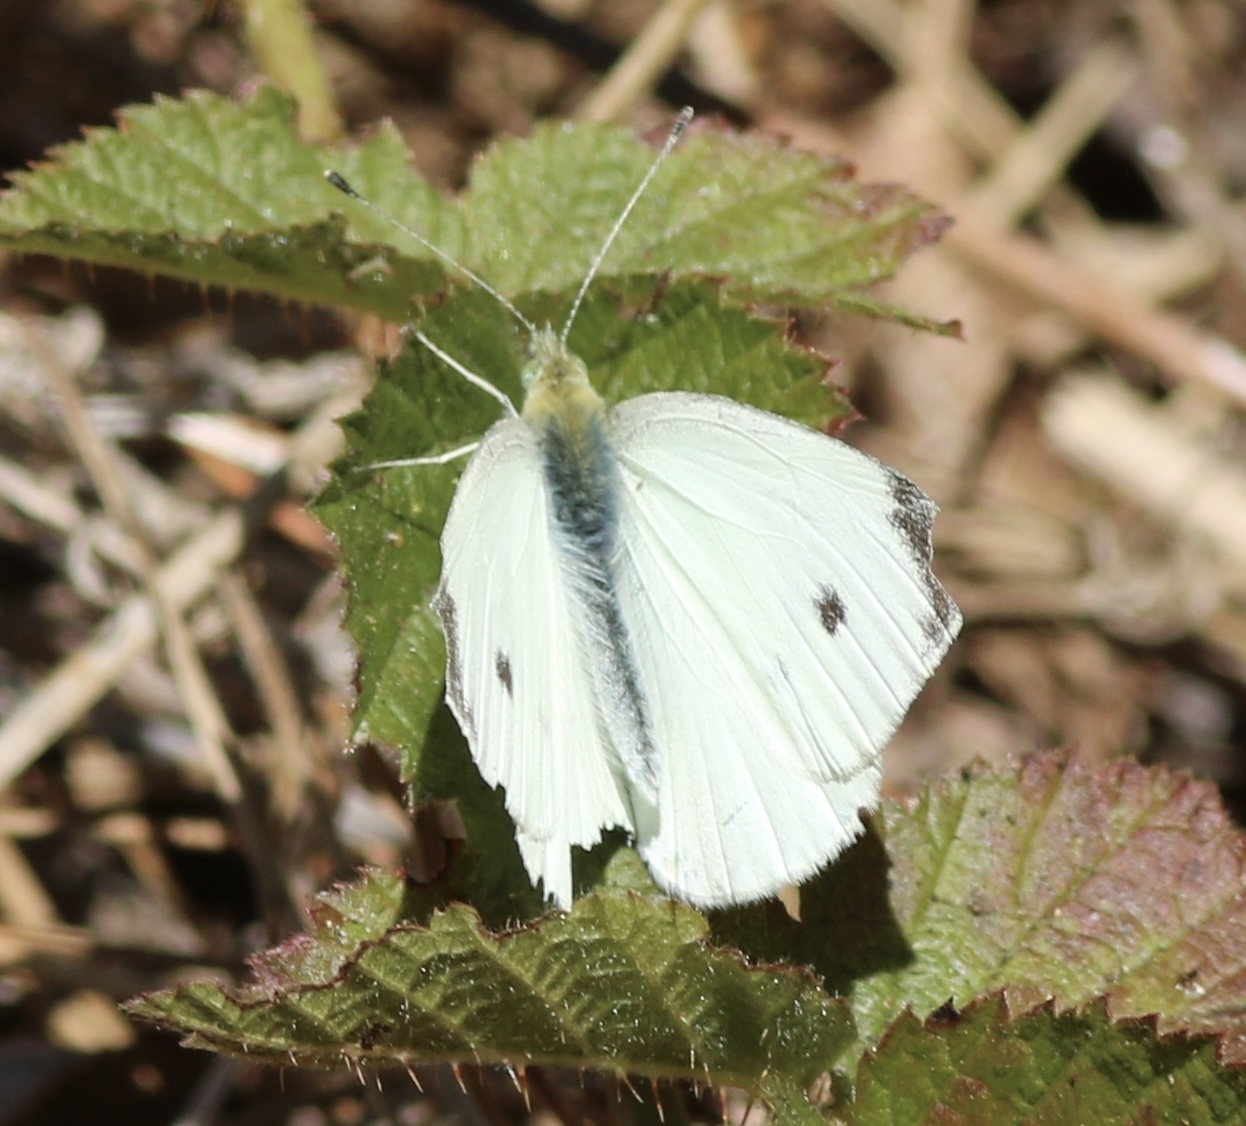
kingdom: Animalia
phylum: Arthropoda
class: Insecta
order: Lepidoptera
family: Pieridae
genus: Pieris
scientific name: Pieris rapae
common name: Small white
